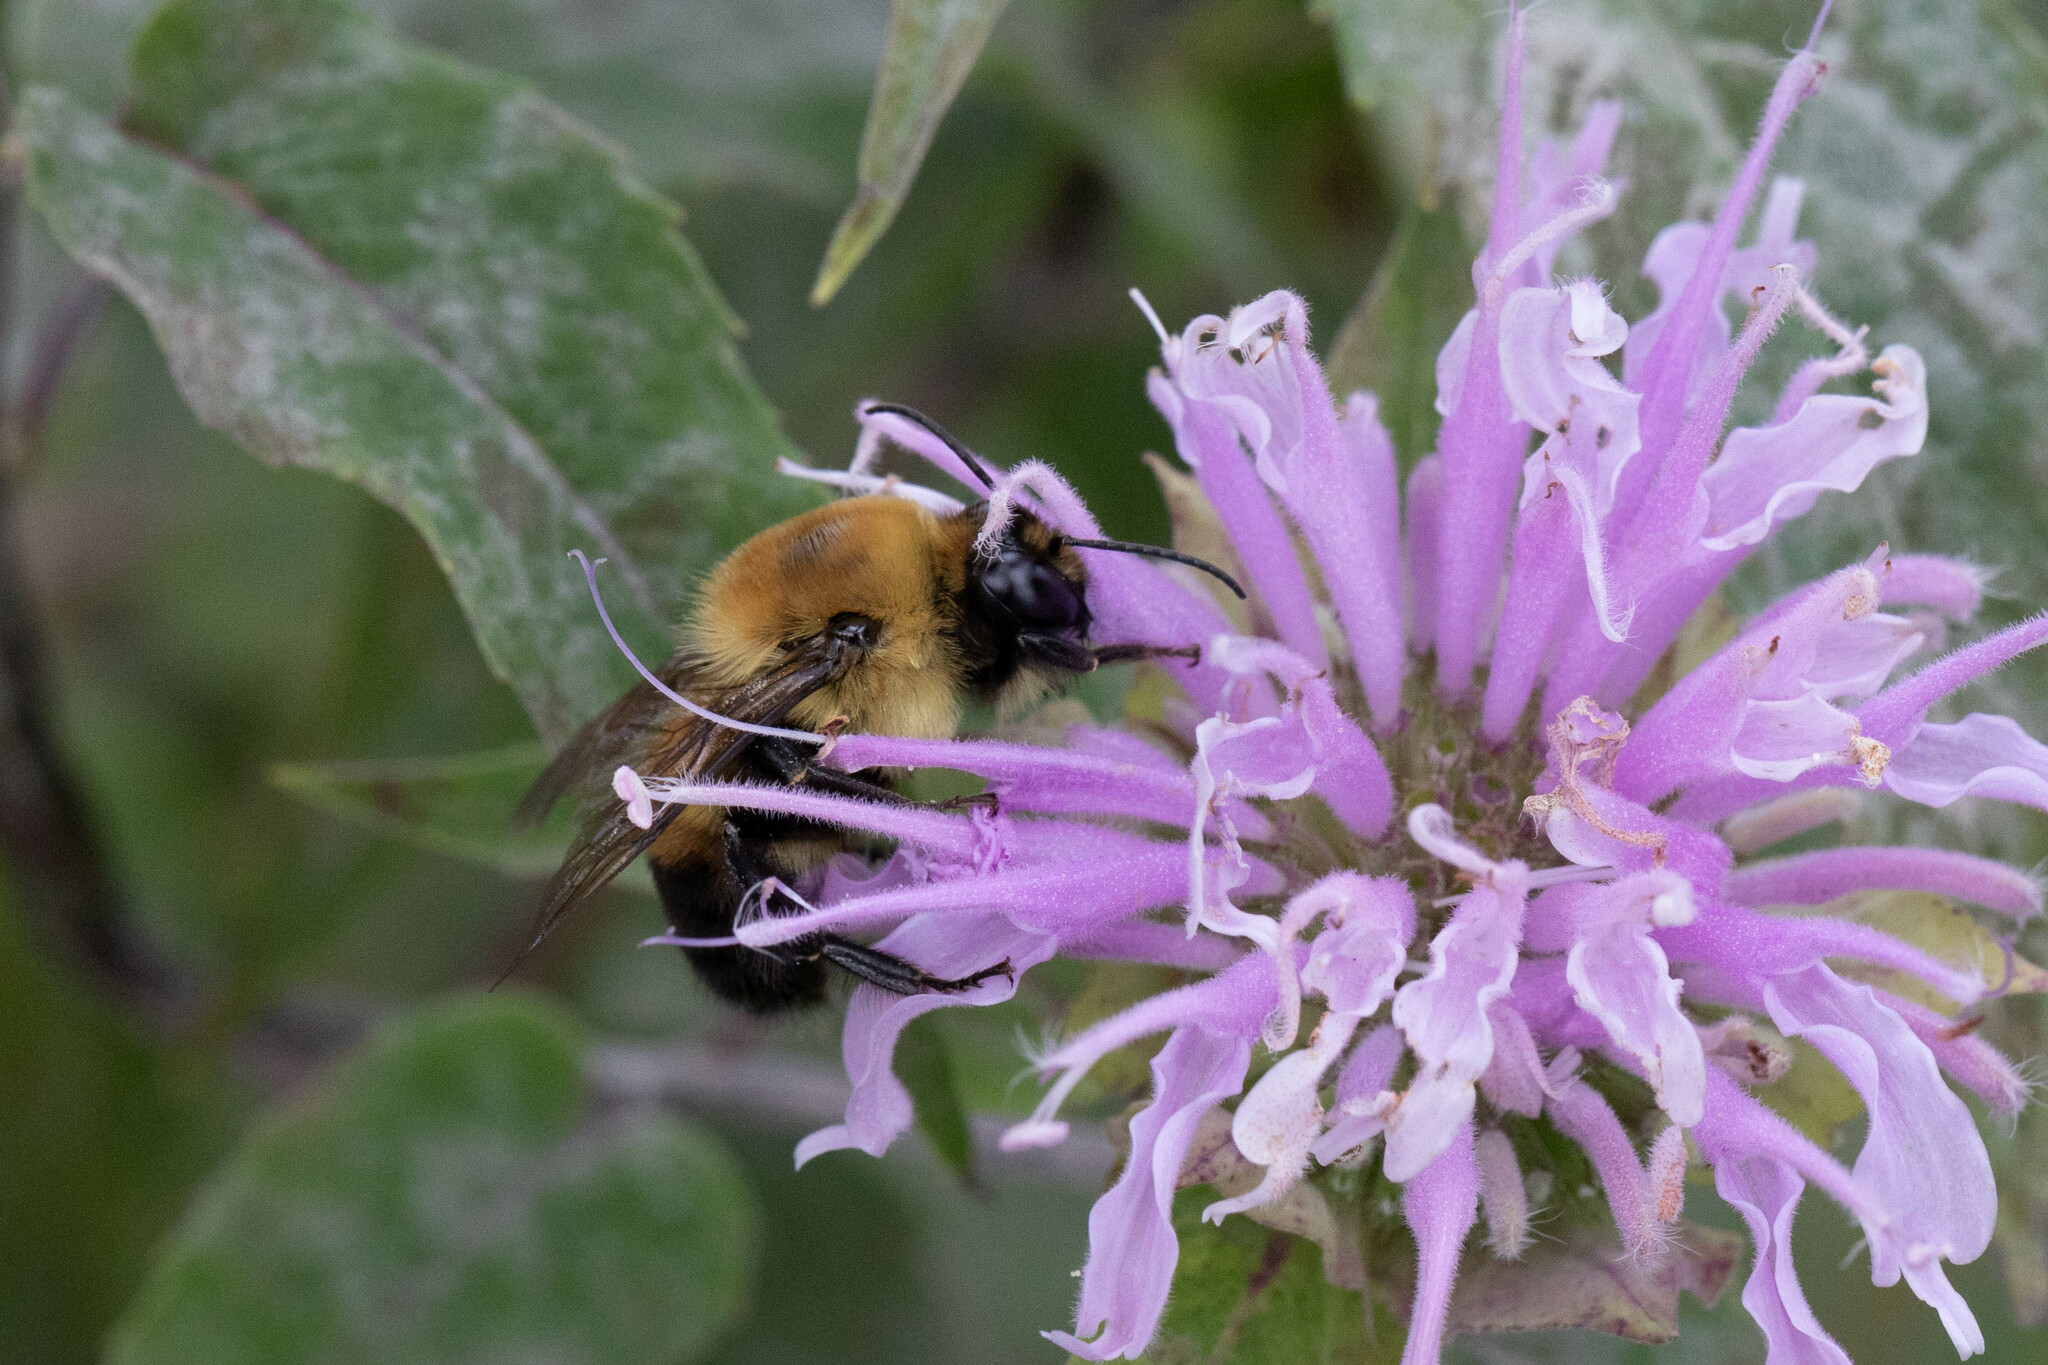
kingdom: Animalia
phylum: Arthropoda
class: Insecta
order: Hymenoptera
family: Apidae
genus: Bombus
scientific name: Bombus griseocollis
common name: Brown-belted bumble bee
